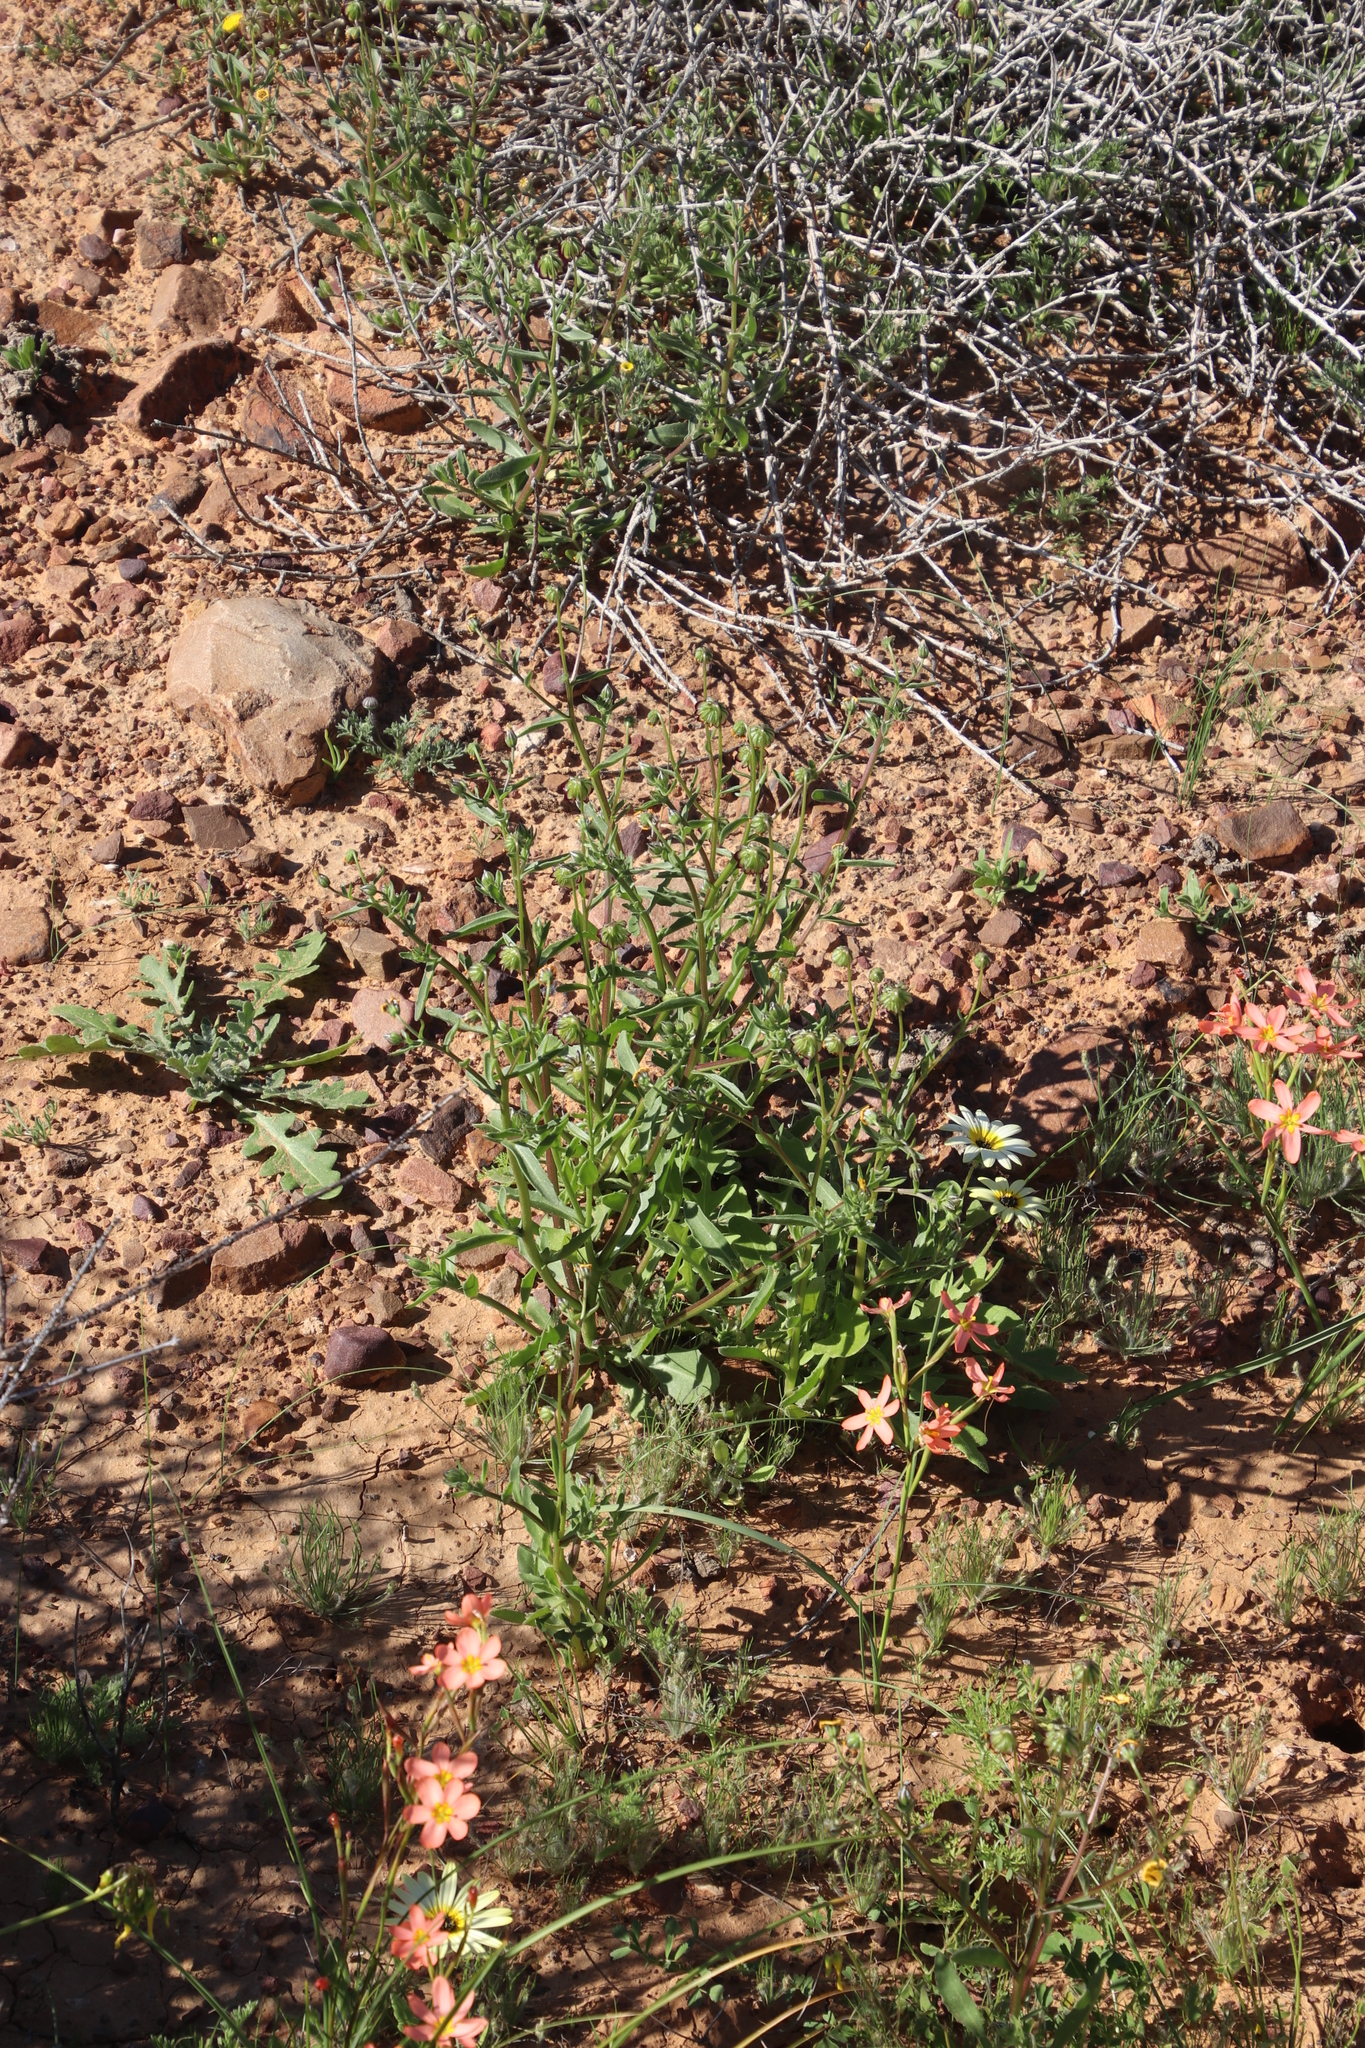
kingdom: Plantae
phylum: Tracheophyta
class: Magnoliopsida
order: Asterales
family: Asteraceae
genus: Osteospermum
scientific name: Osteospermum monstrosum
